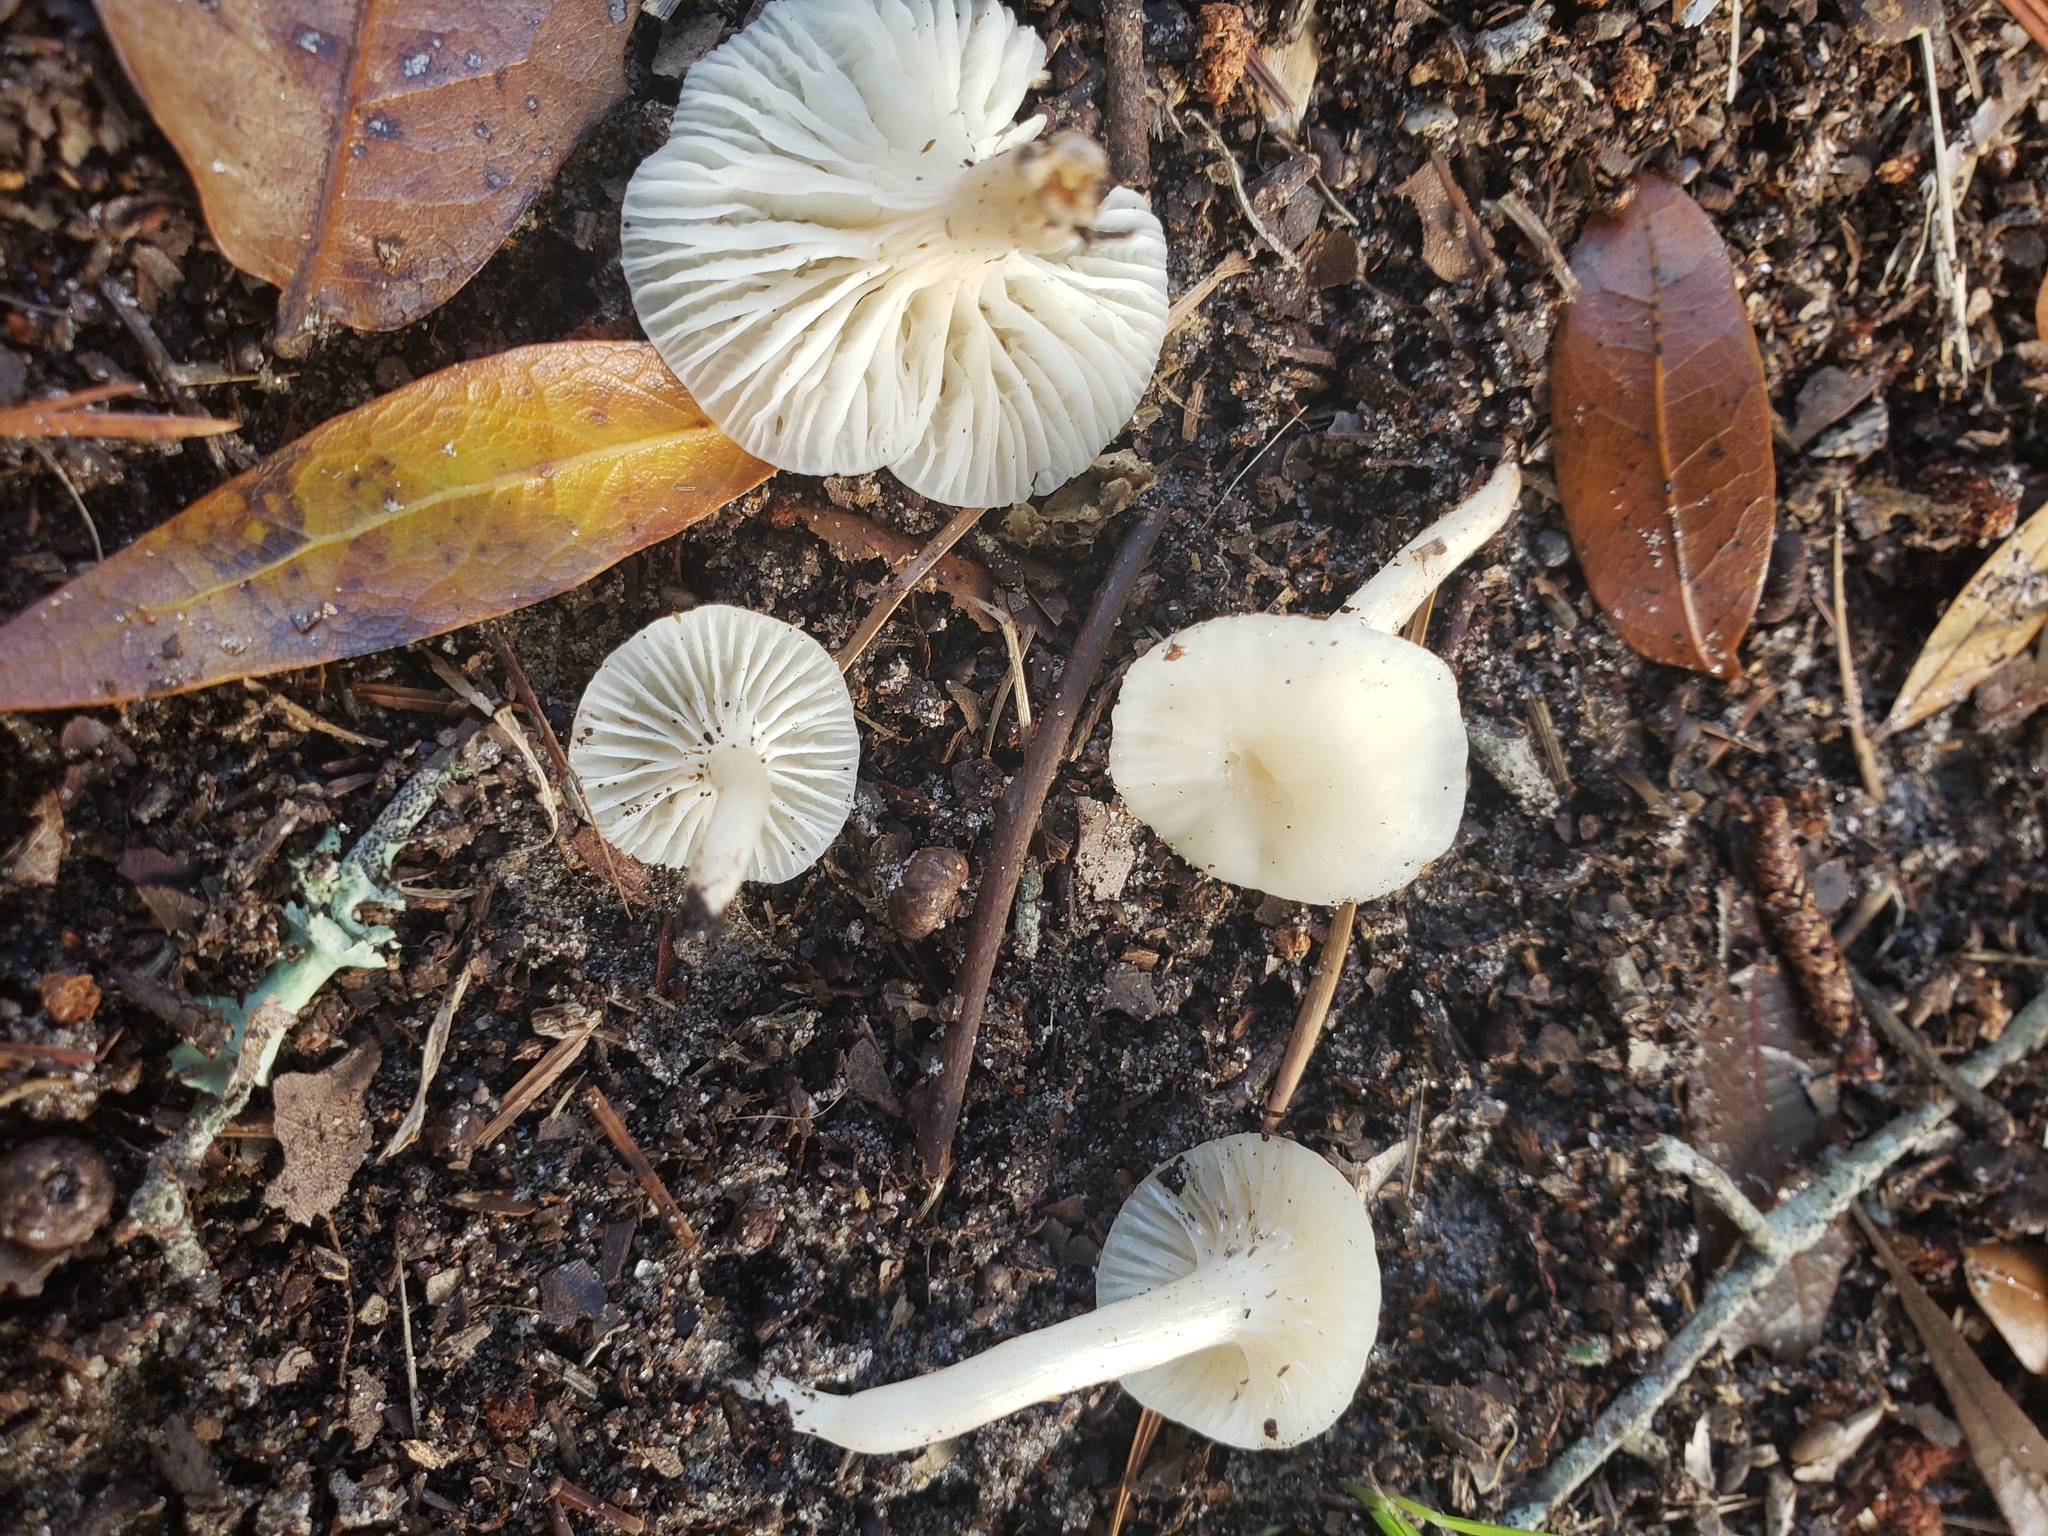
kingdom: Fungi
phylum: Basidiomycota
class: Agaricomycetes
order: Agaricales
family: Hygrophoraceae
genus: Cuphophyllus
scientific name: Cuphophyllus virgineus
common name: Snowy waxcap
